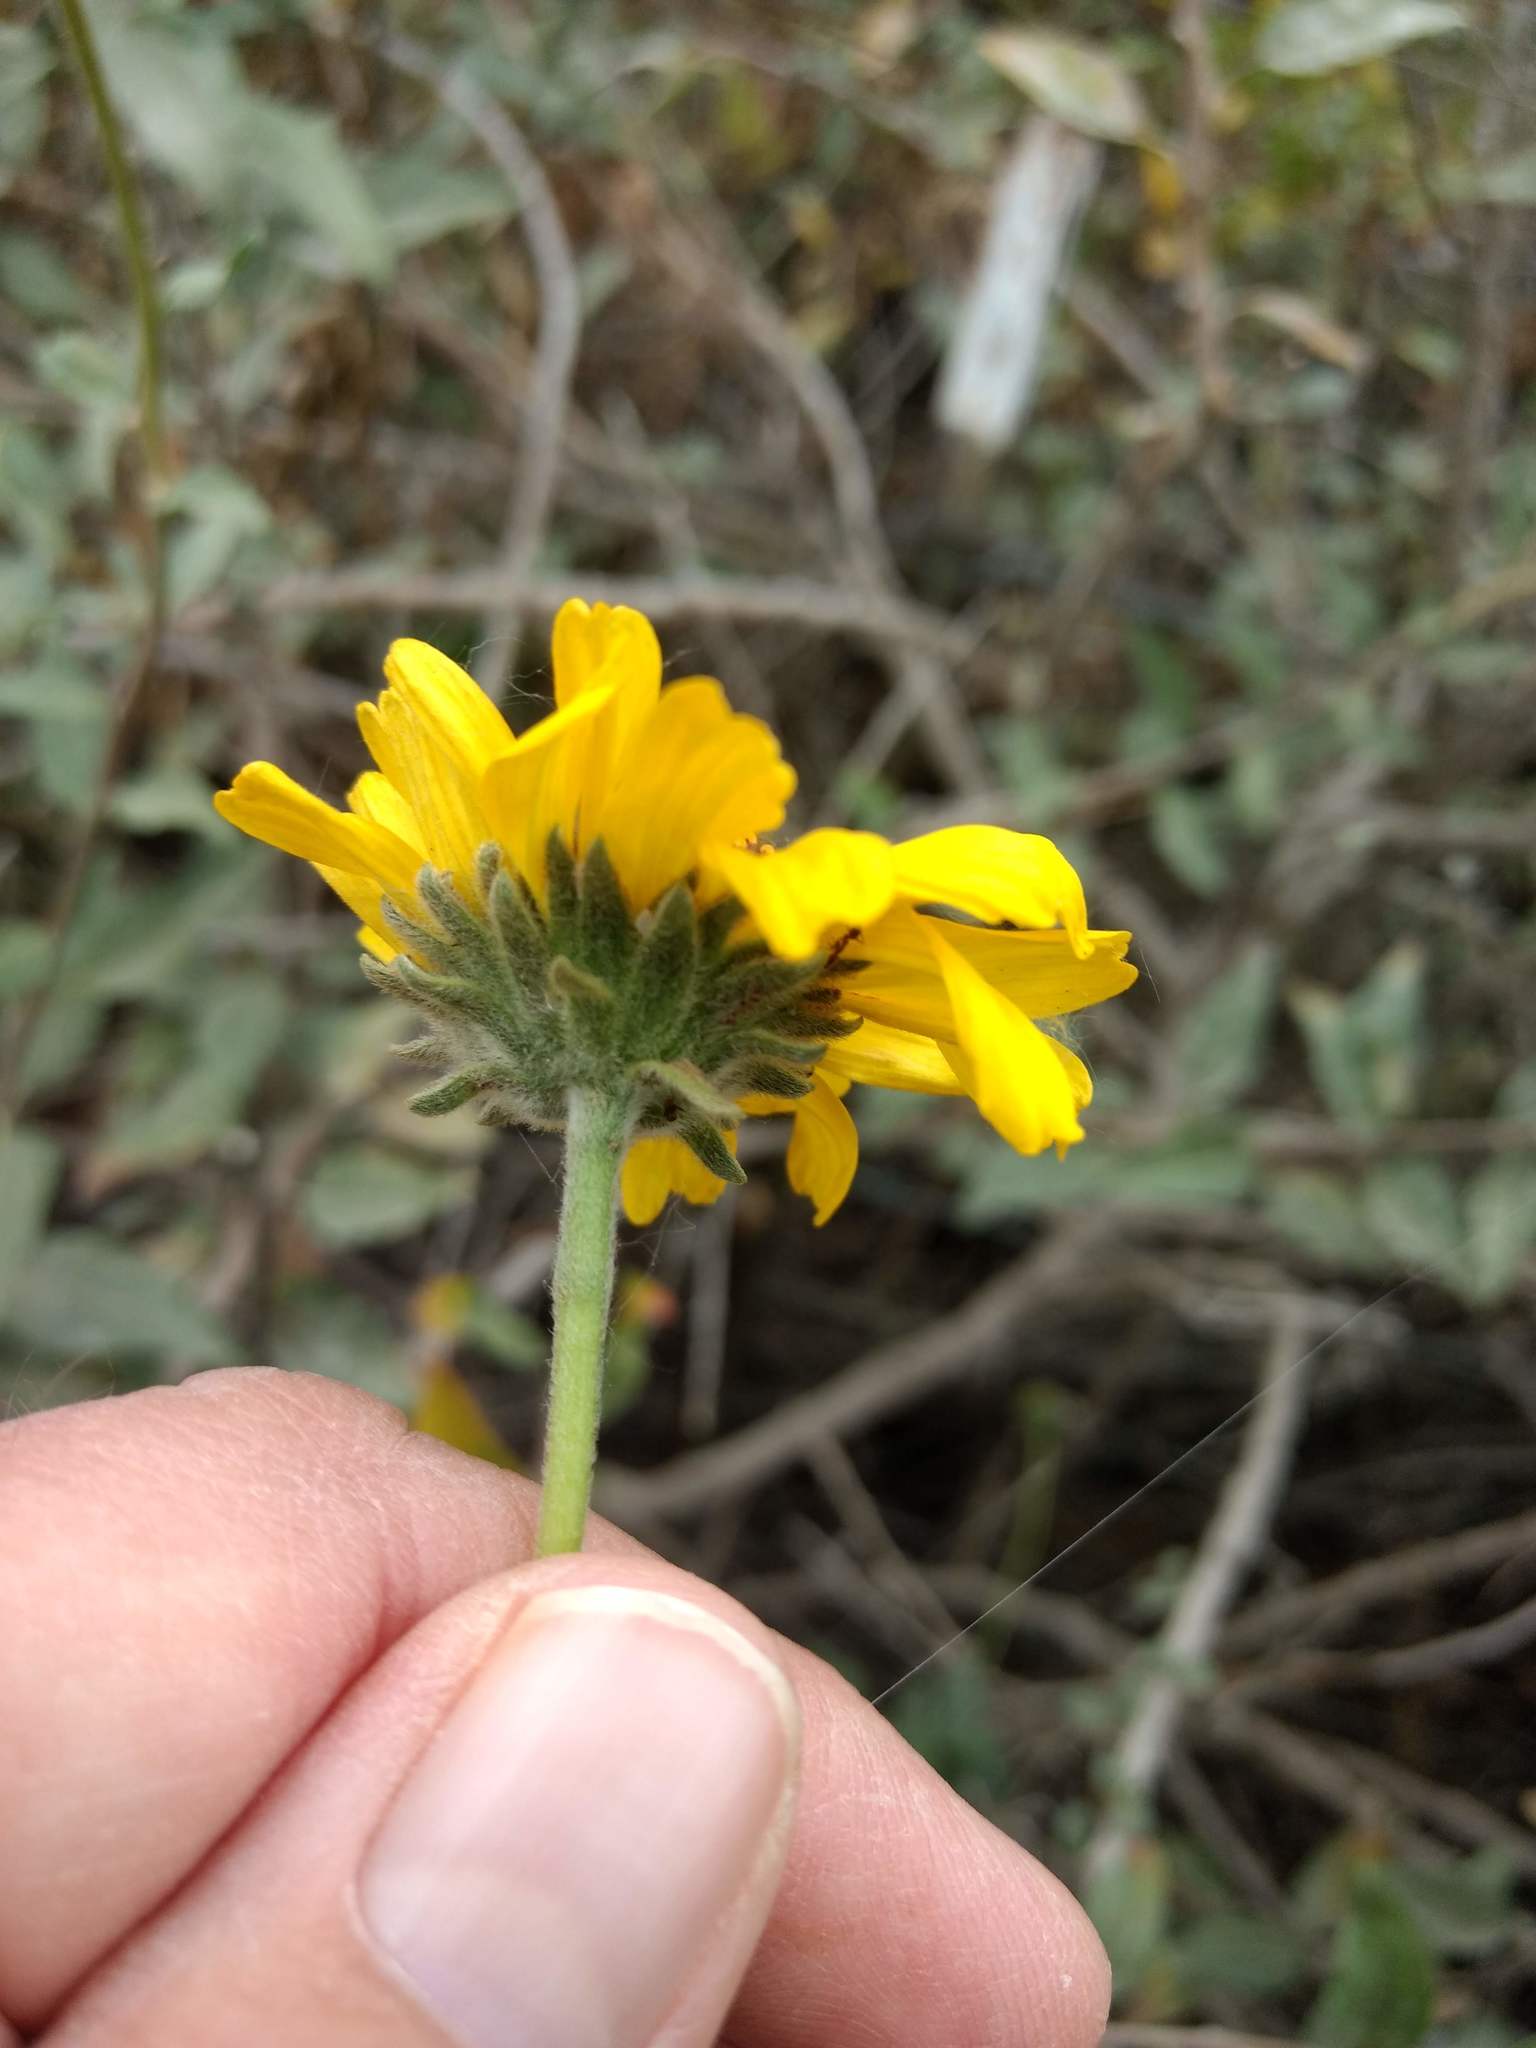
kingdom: Plantae
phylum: Tracheophyta
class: Magnoliopsida
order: Asterales
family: Asteraceae
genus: Encelia
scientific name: Encelia californica
